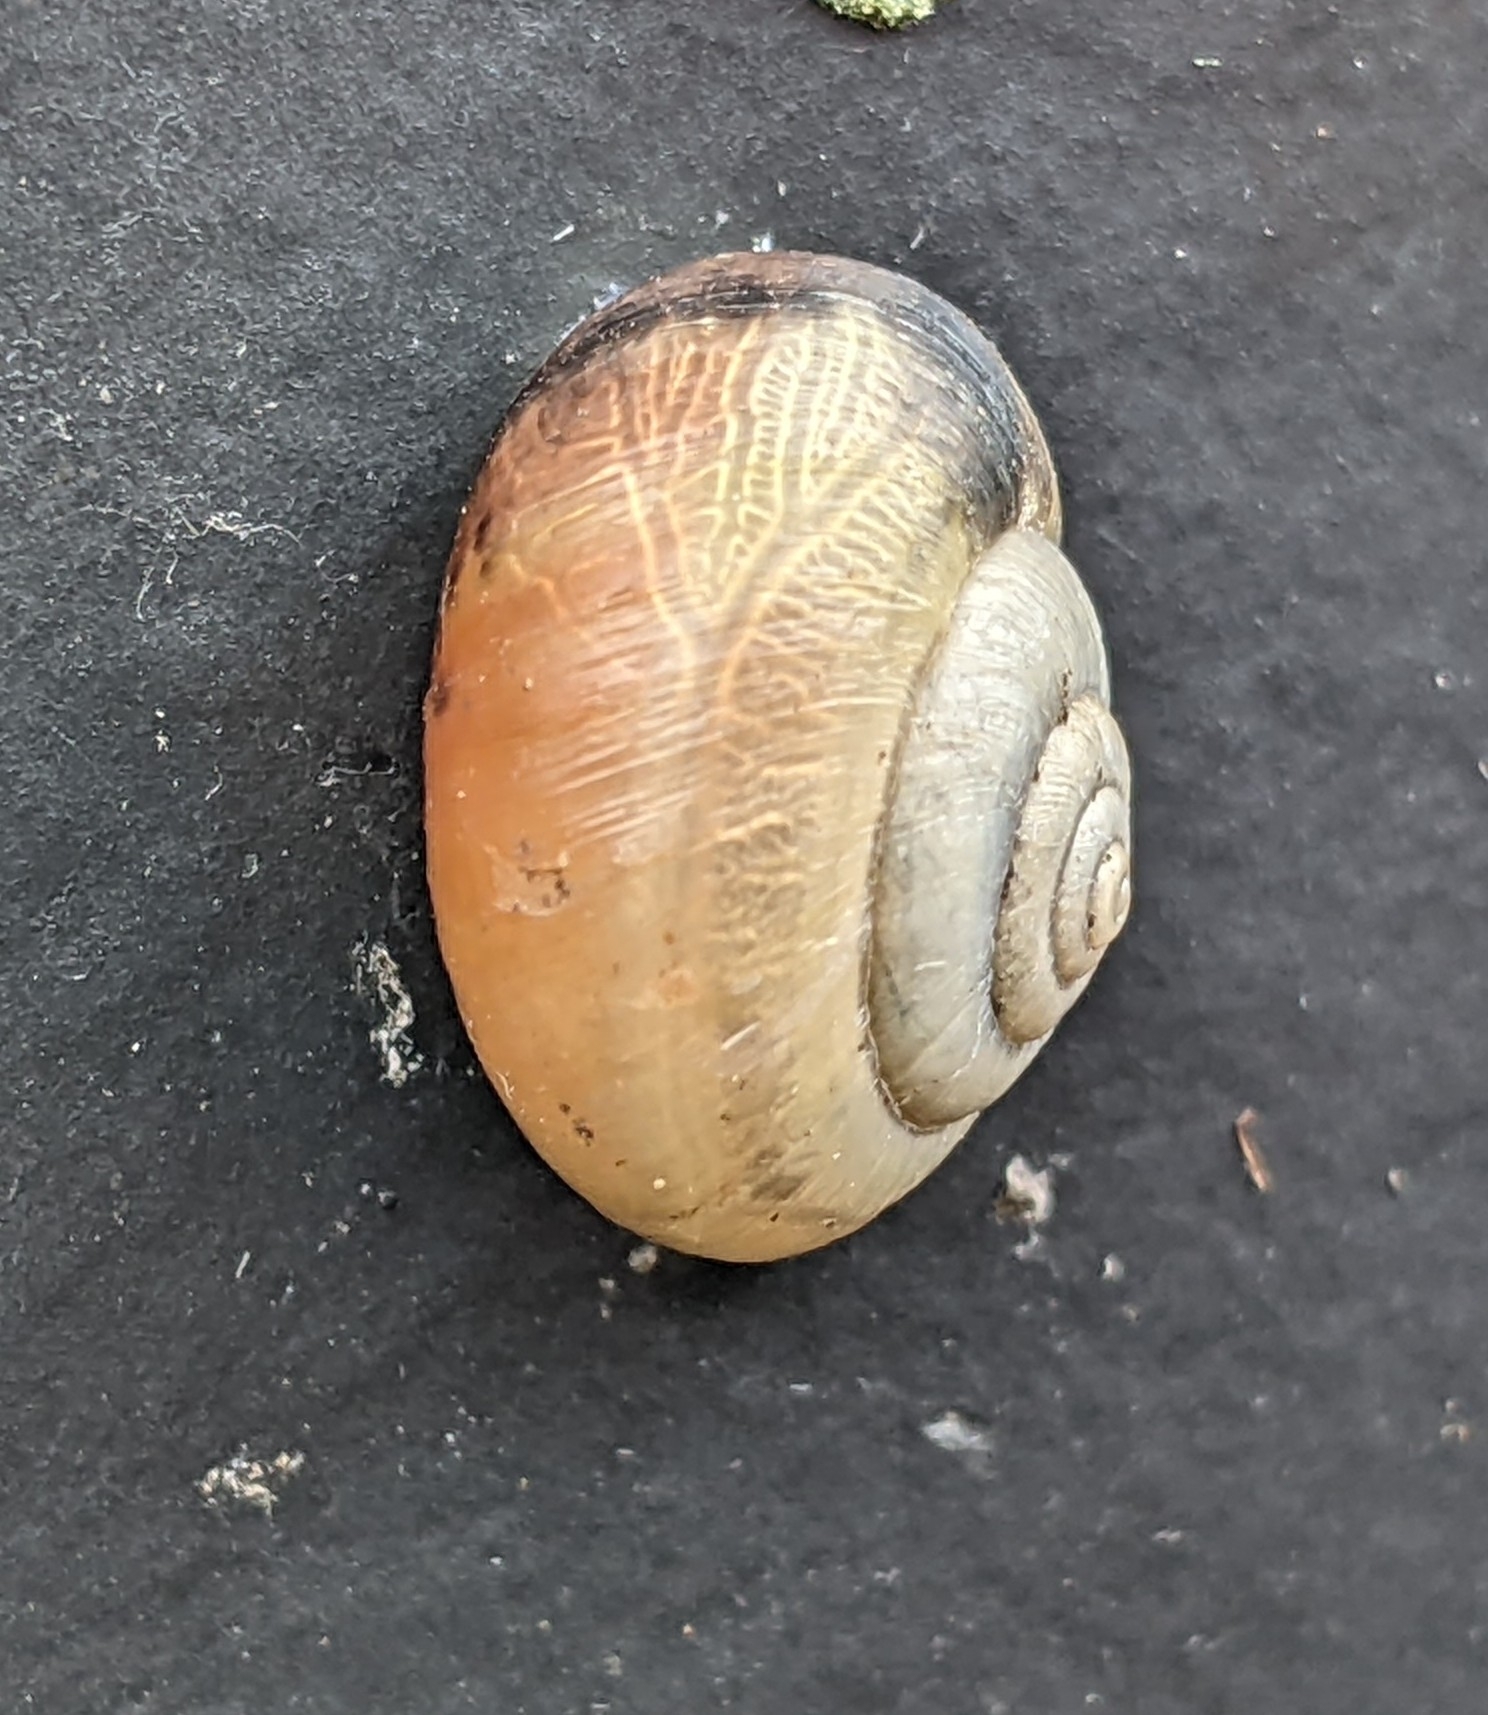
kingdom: Animalia
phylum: Mollusca
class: Gastropoda
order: Stylommatophora
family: Hygromiidae
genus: Monacha
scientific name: Monacha cantiana
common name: Kentish snail
